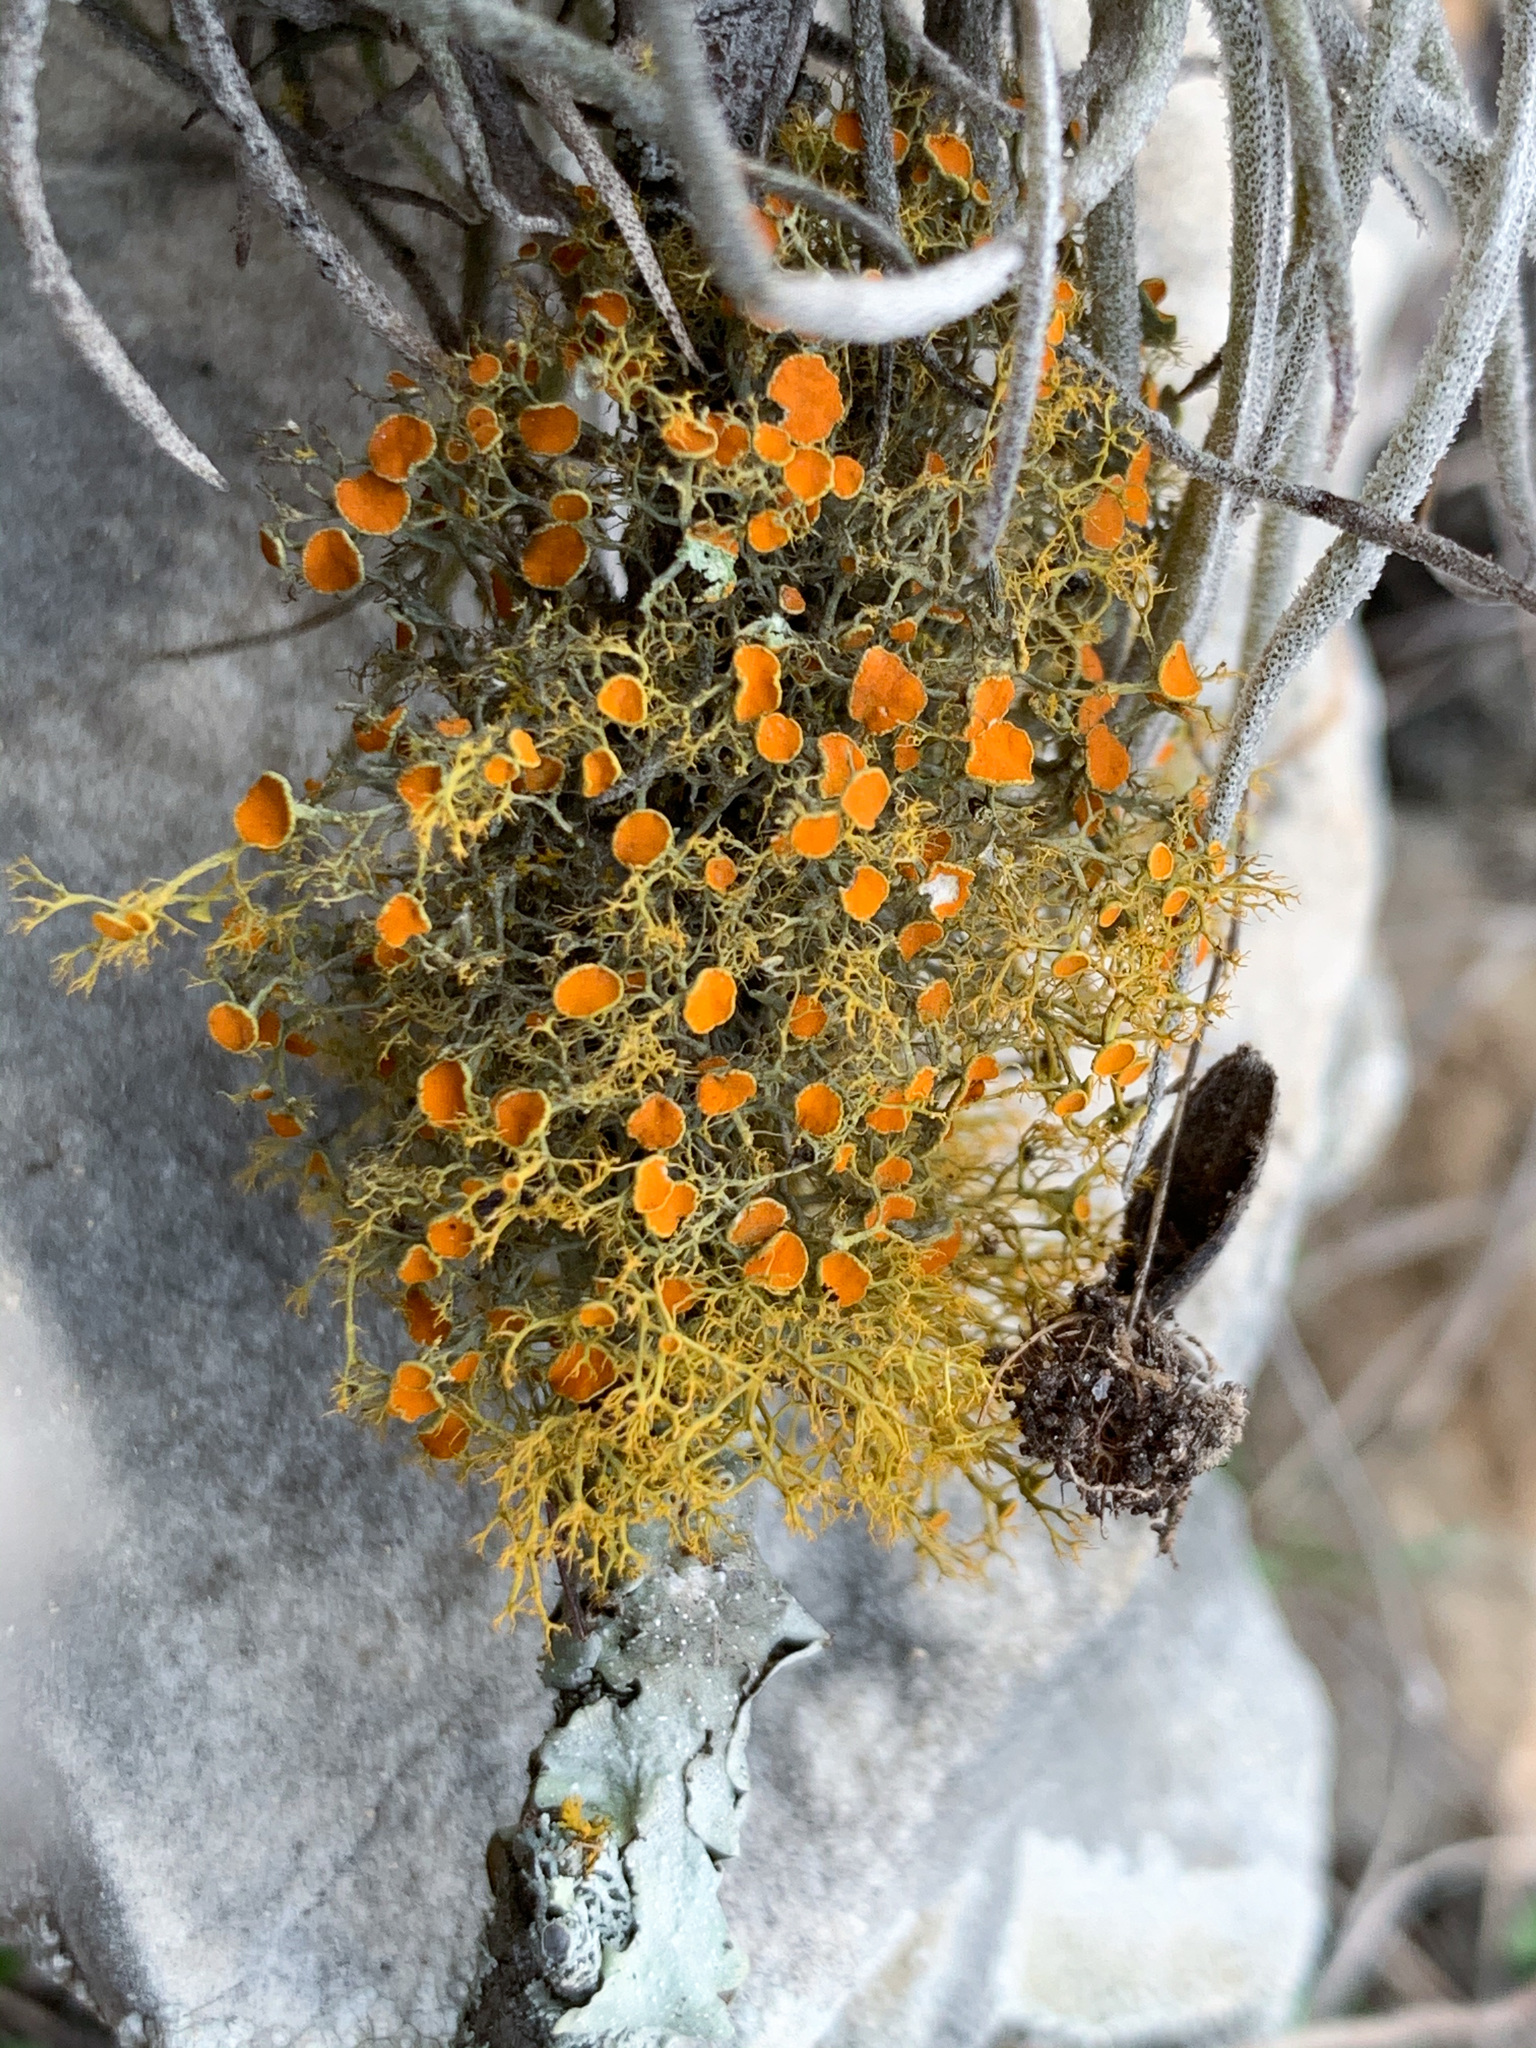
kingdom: Fungi
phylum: Ascomycota
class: Lecanoromycetes
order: Teloschistales
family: Teloschistaceae
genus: Teloschistes
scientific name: Teloschistes exilis
